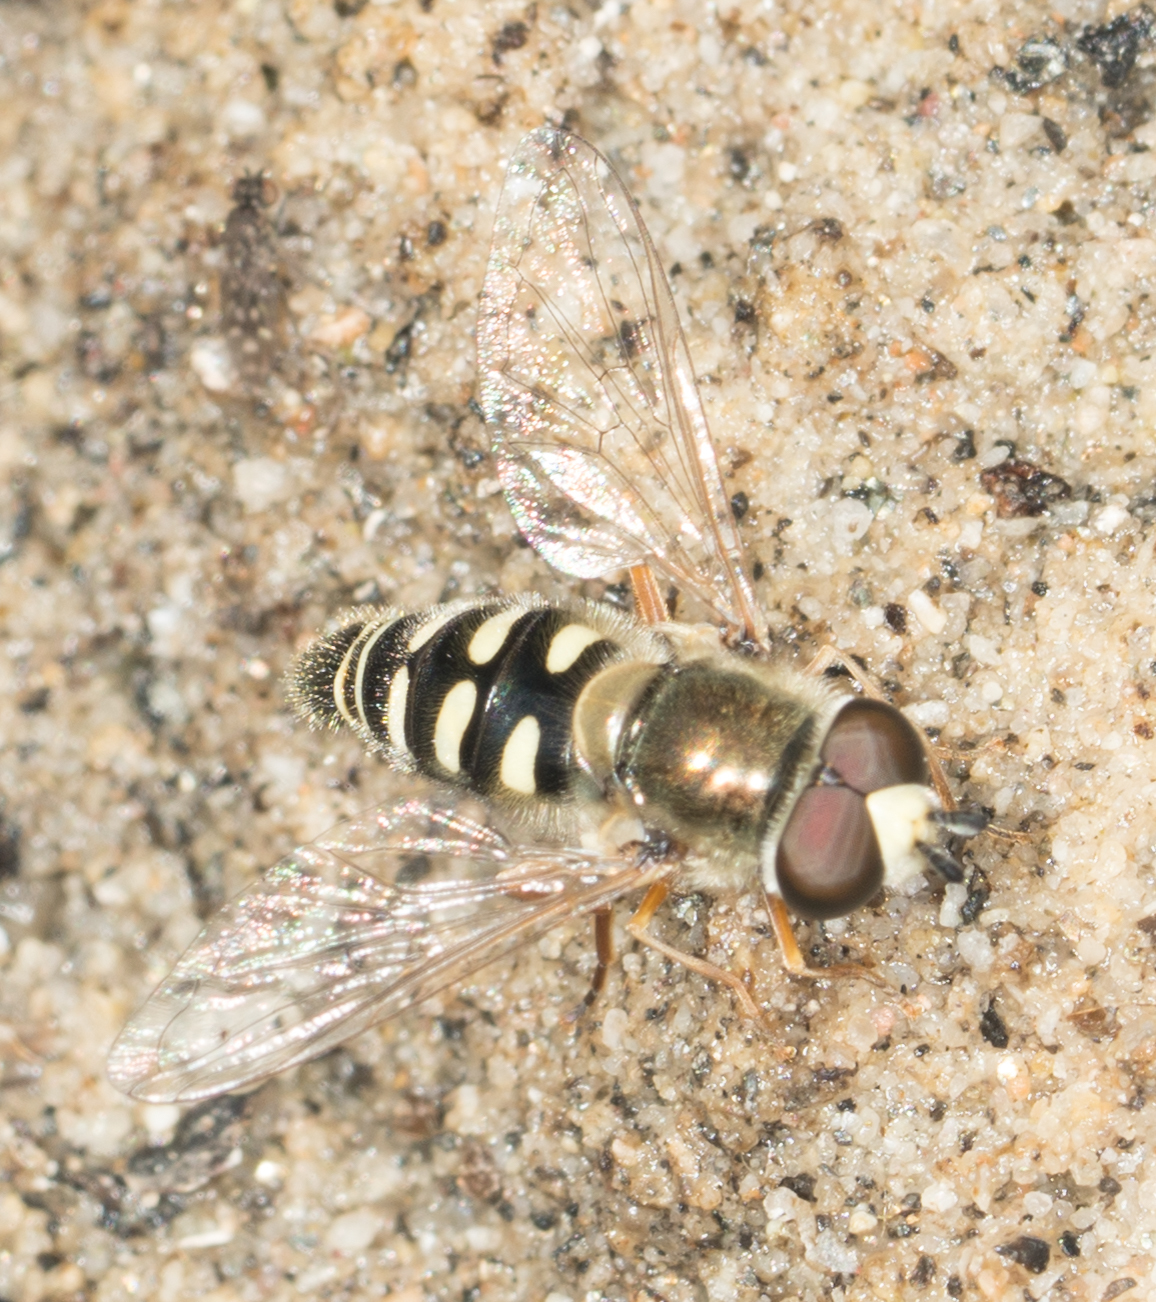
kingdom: Animalia
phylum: Arthropoda
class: Insecta
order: Diptera
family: Syrphidae
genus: Eupeodes
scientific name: Eupeodes volucris
